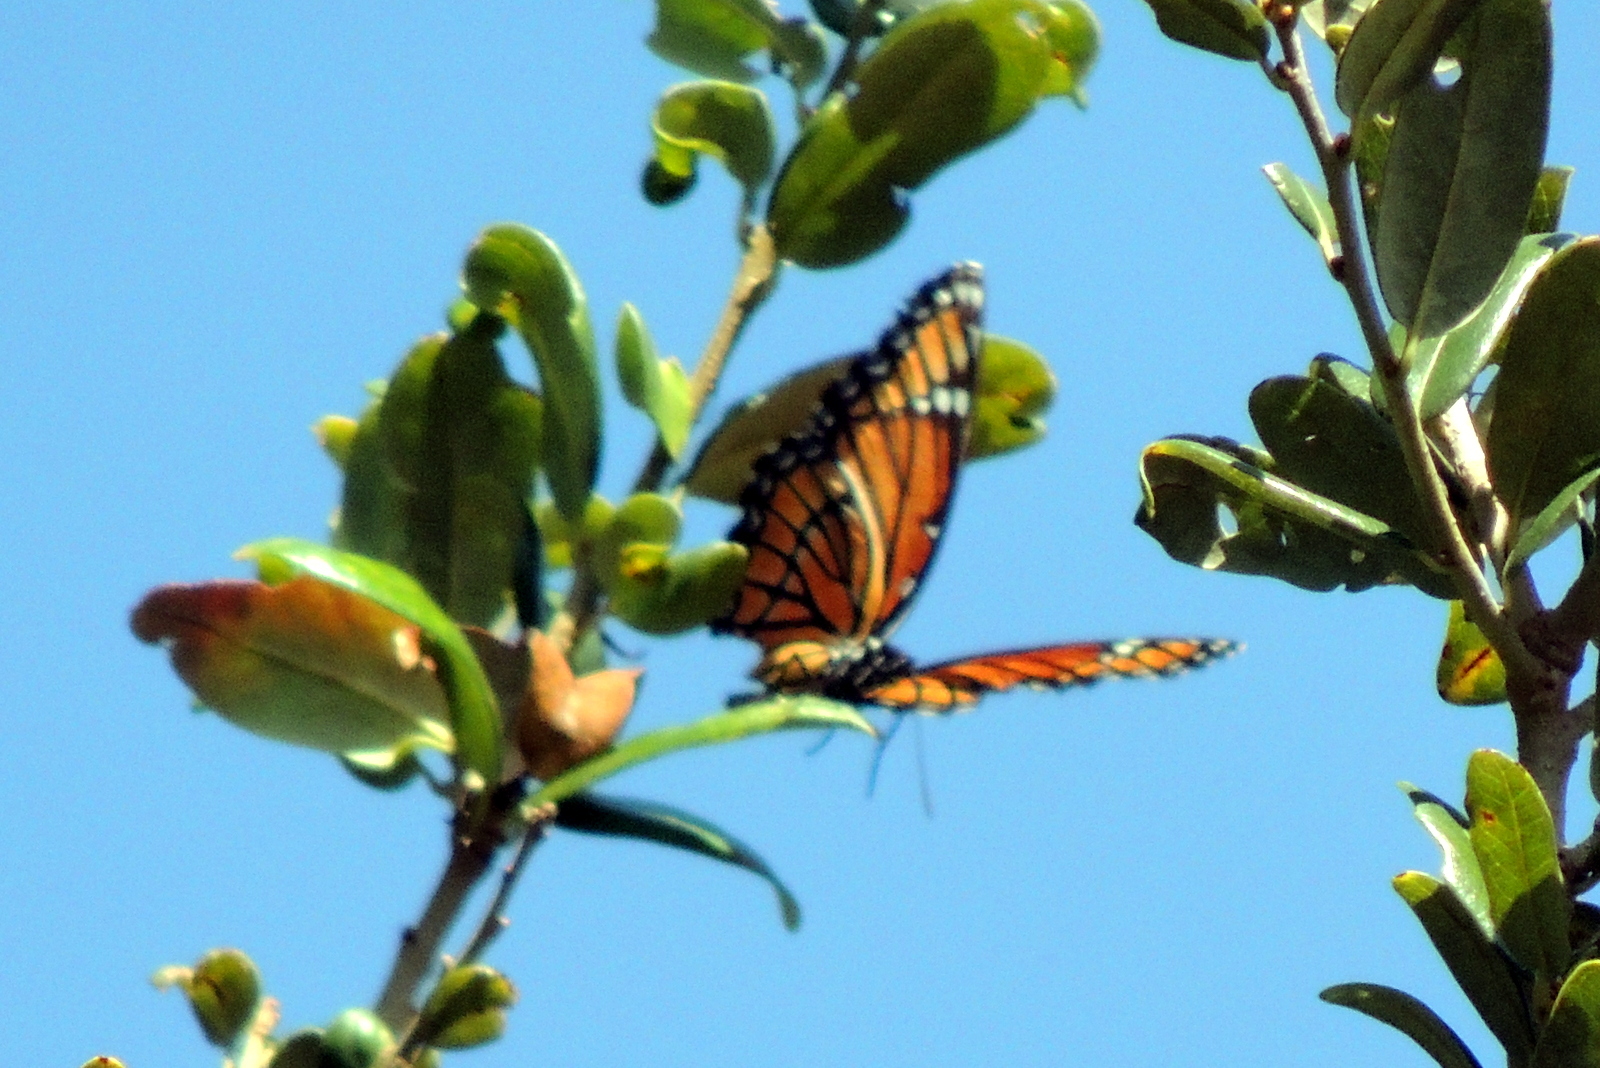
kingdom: Animalia
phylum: Arthropoda
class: Insecta
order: Lepidoptera
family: Nymphalidae
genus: Limenitis
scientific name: Limenitis archippus
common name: Viceroy
